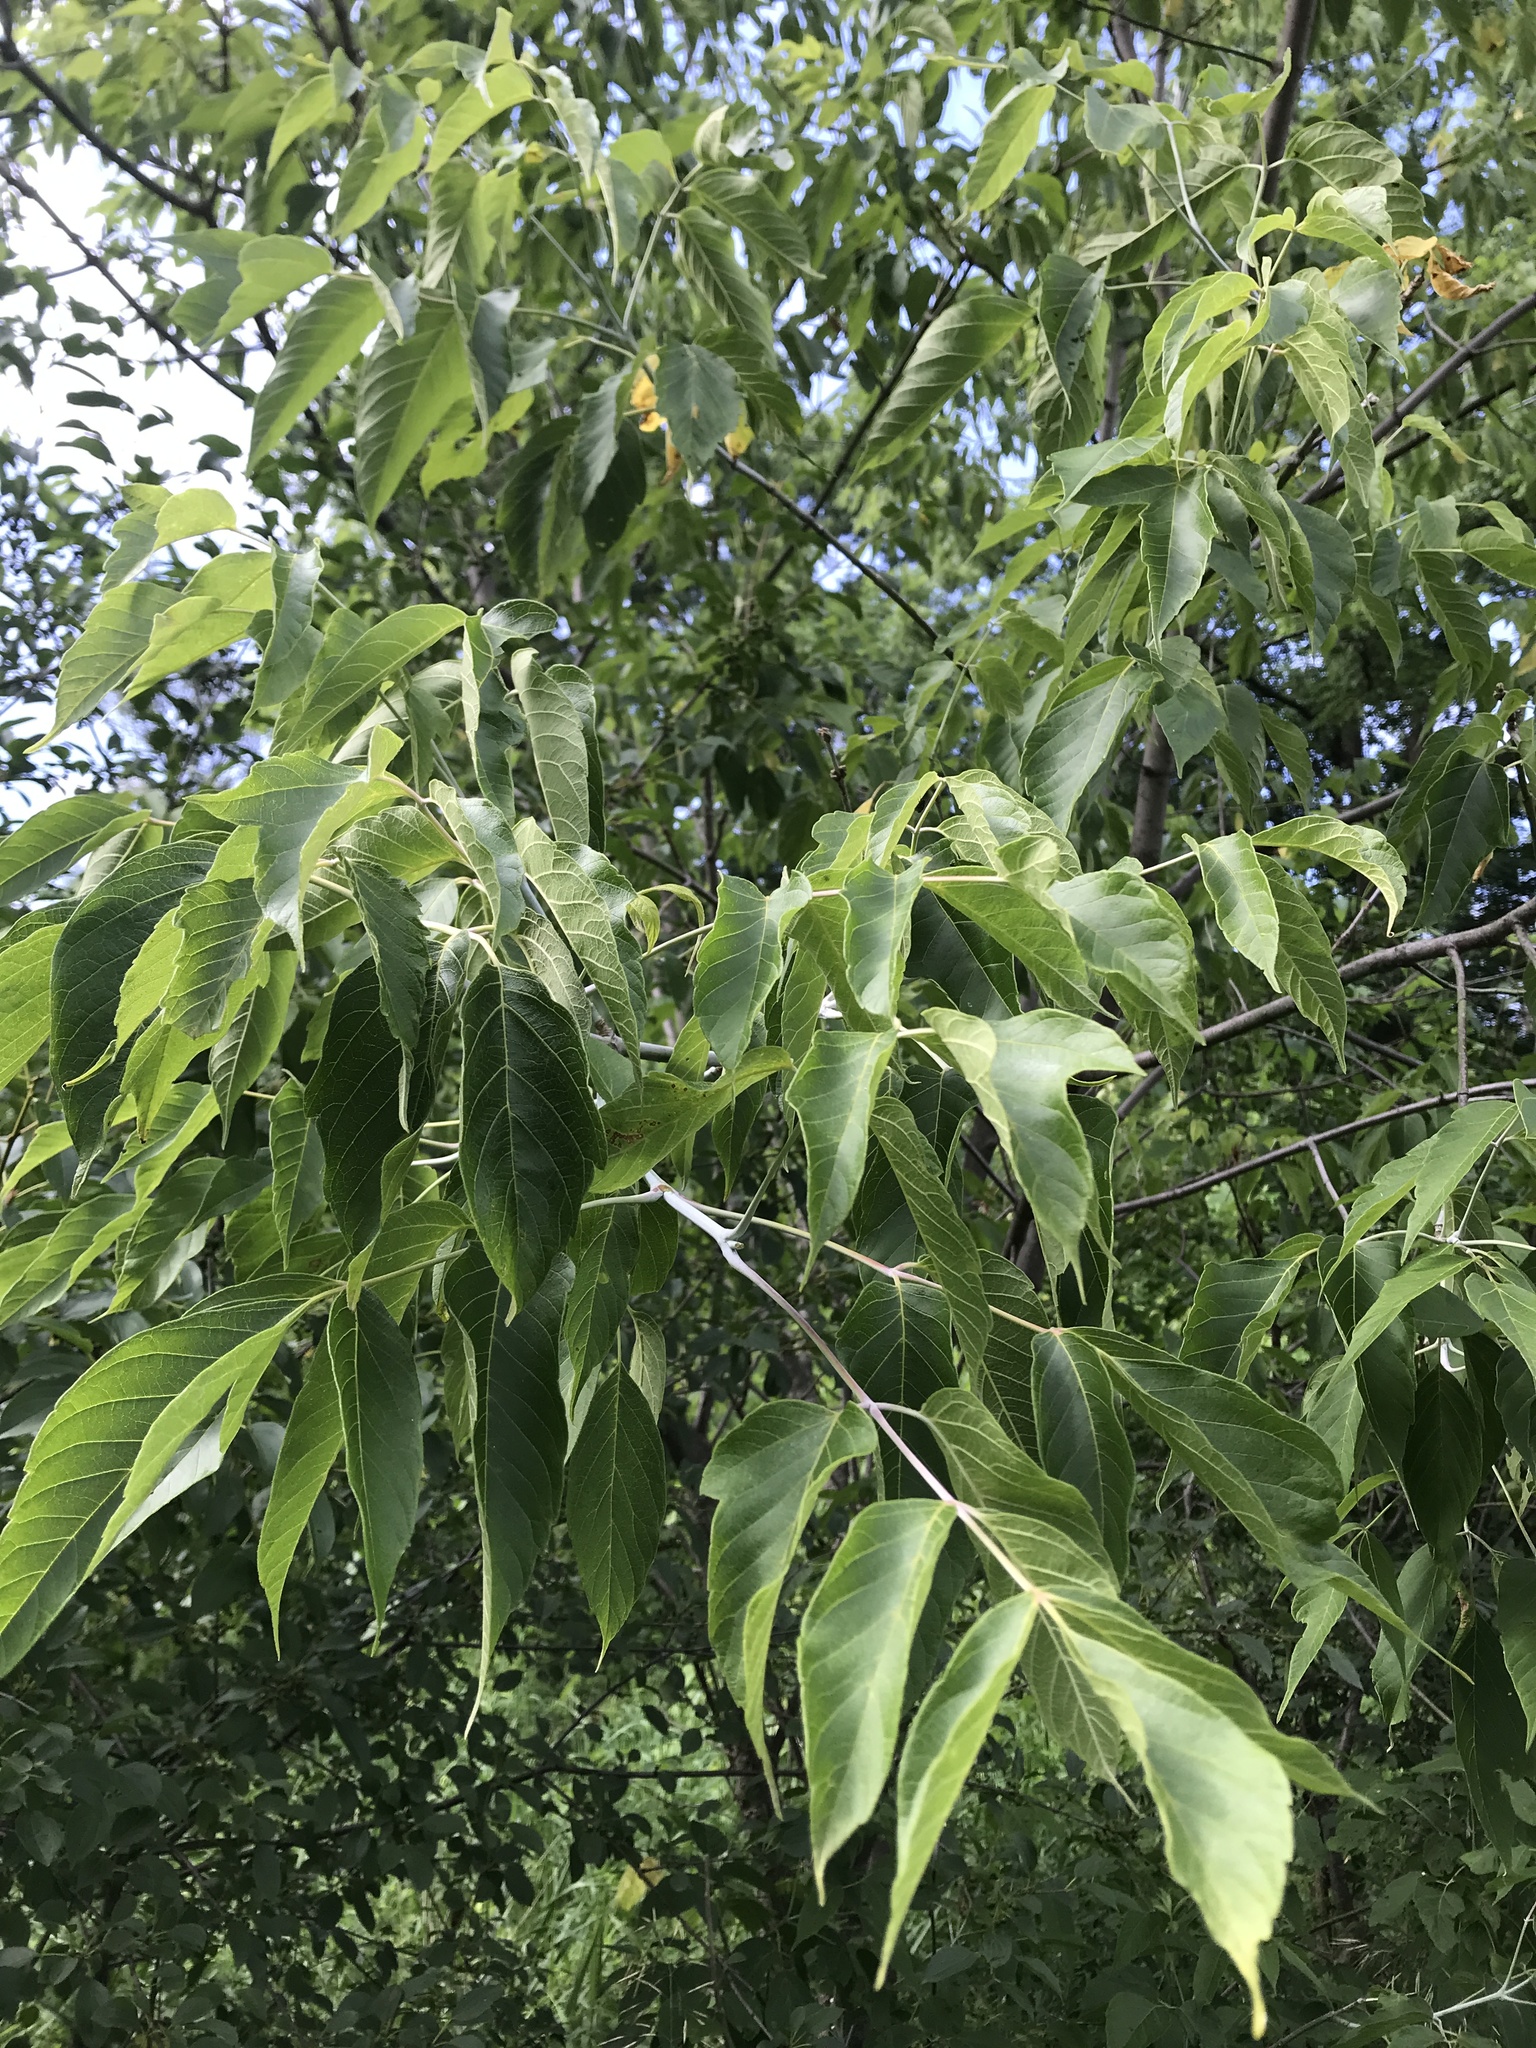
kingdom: Plantae
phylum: Tracheophyta
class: Magnoliopsida
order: Sapindales
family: Sapindaceae
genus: Acer
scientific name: Acer negundo
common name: Ashleaf maple
